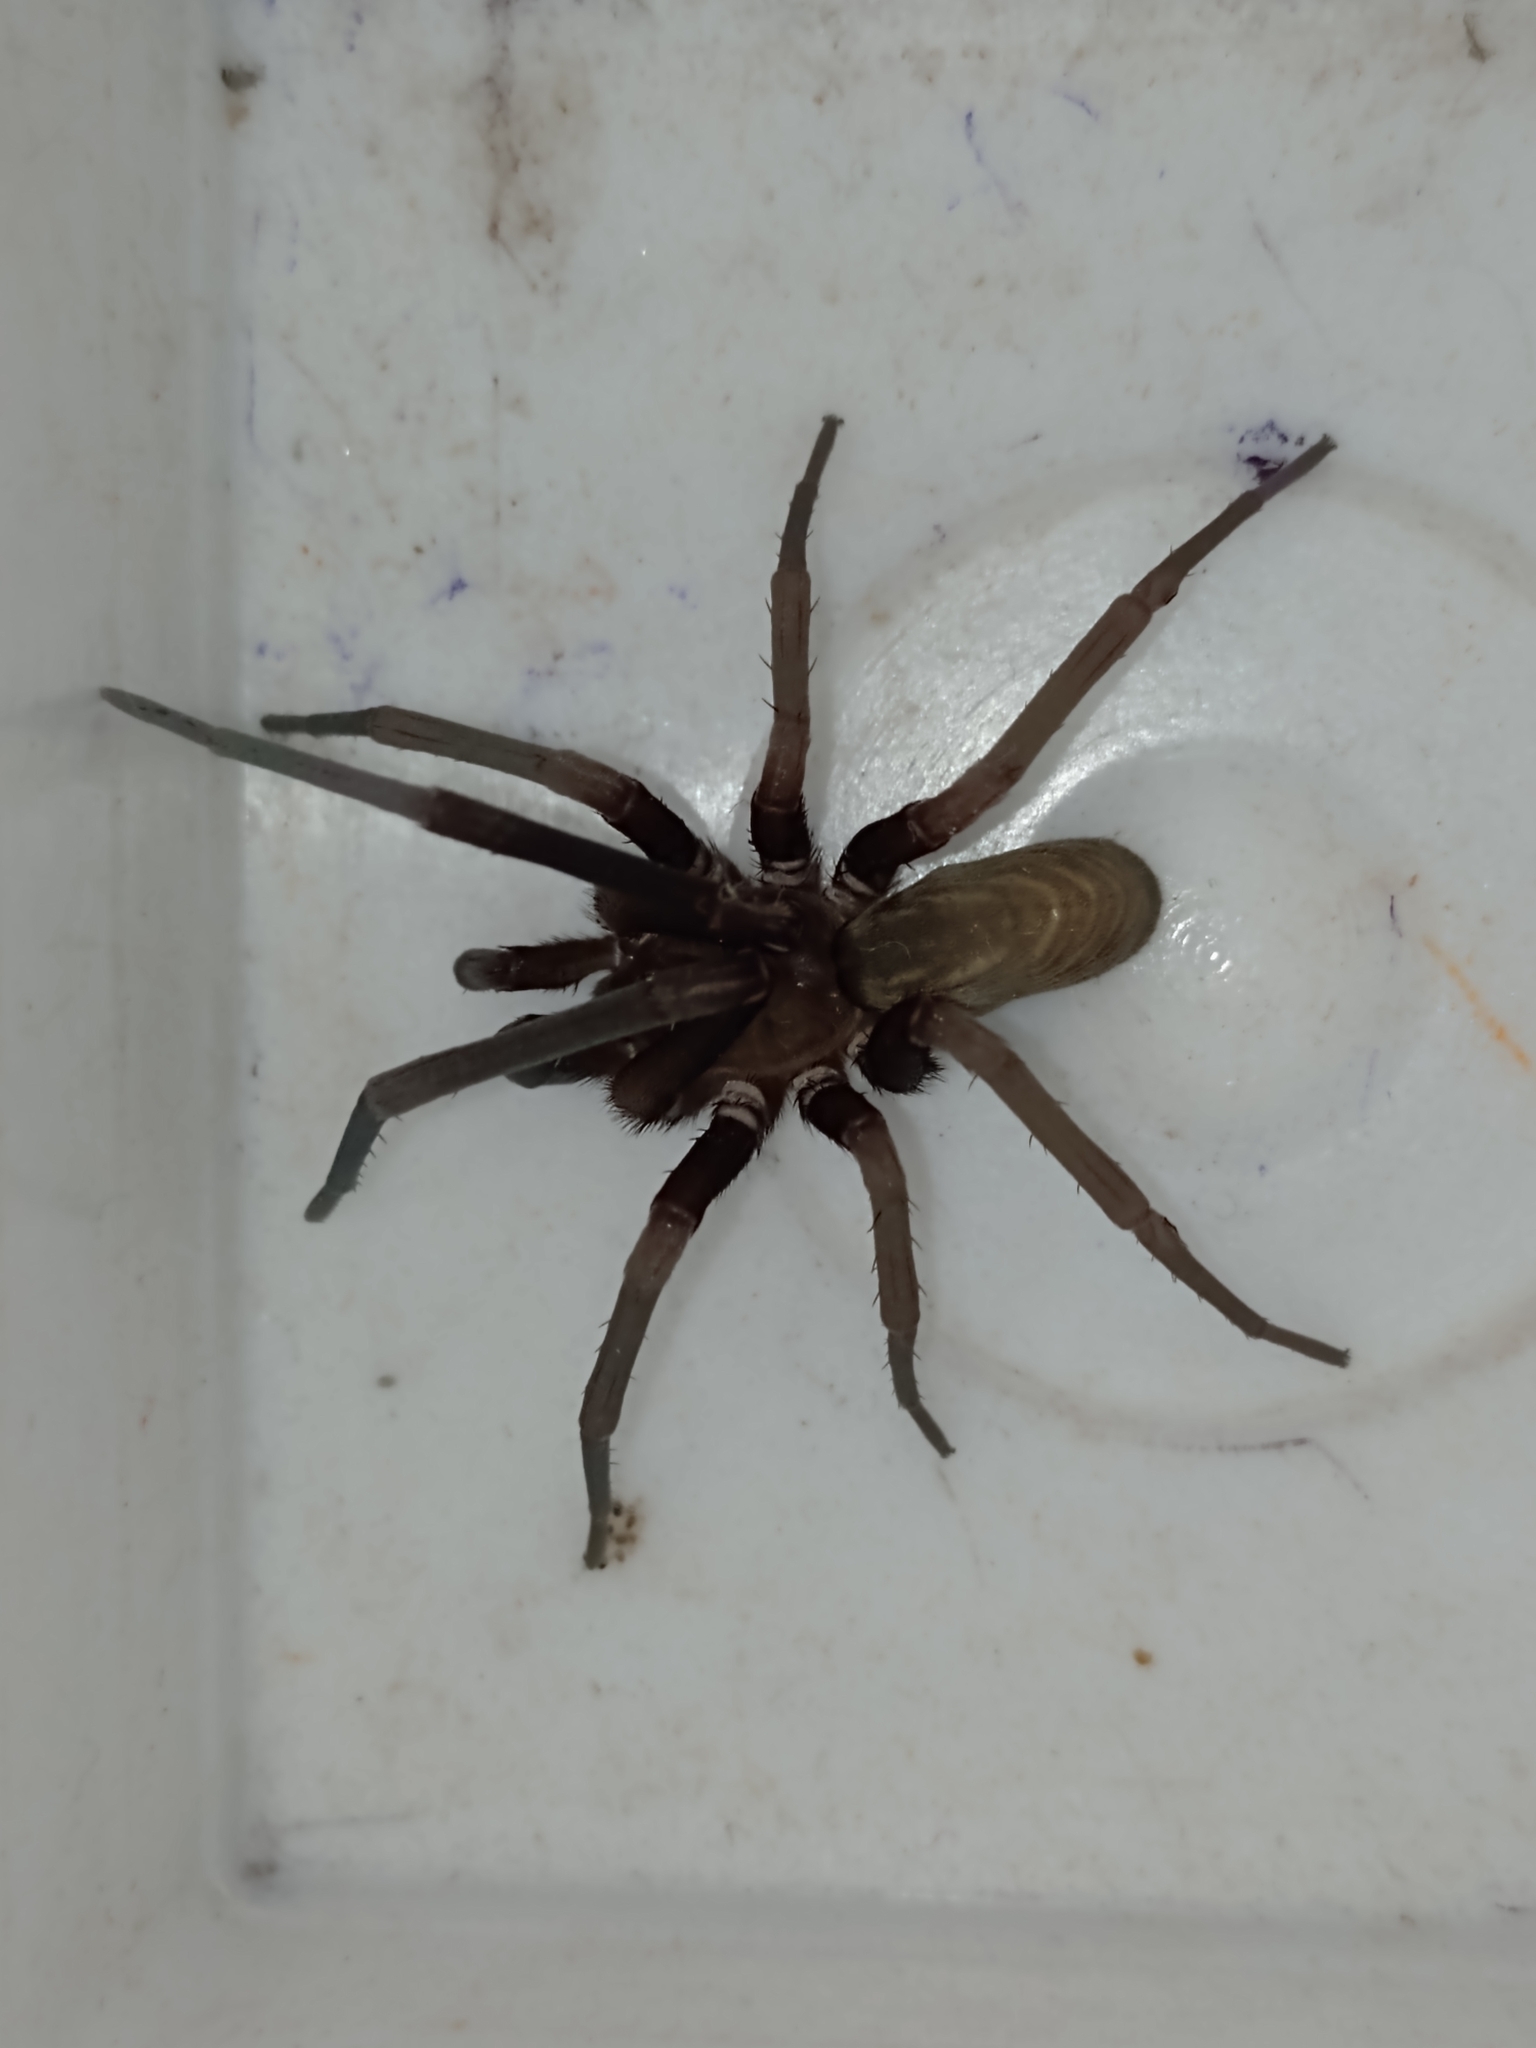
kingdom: Animalia
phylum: Arthropoda
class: Arachnida
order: Araneae
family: Filistatidae
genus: Kukulcania
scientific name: Kukulcania hibernalis
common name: Crevice weaver
